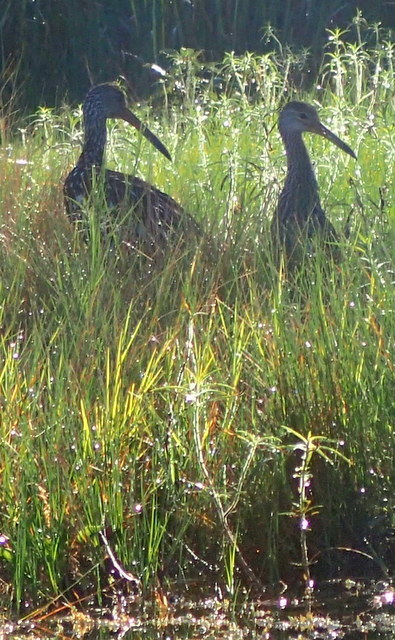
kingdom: Animalia
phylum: Chordata
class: Aves
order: Gruiformes
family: Aramidae
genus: Aramus
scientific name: Aramus guarauna
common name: Limpkin
